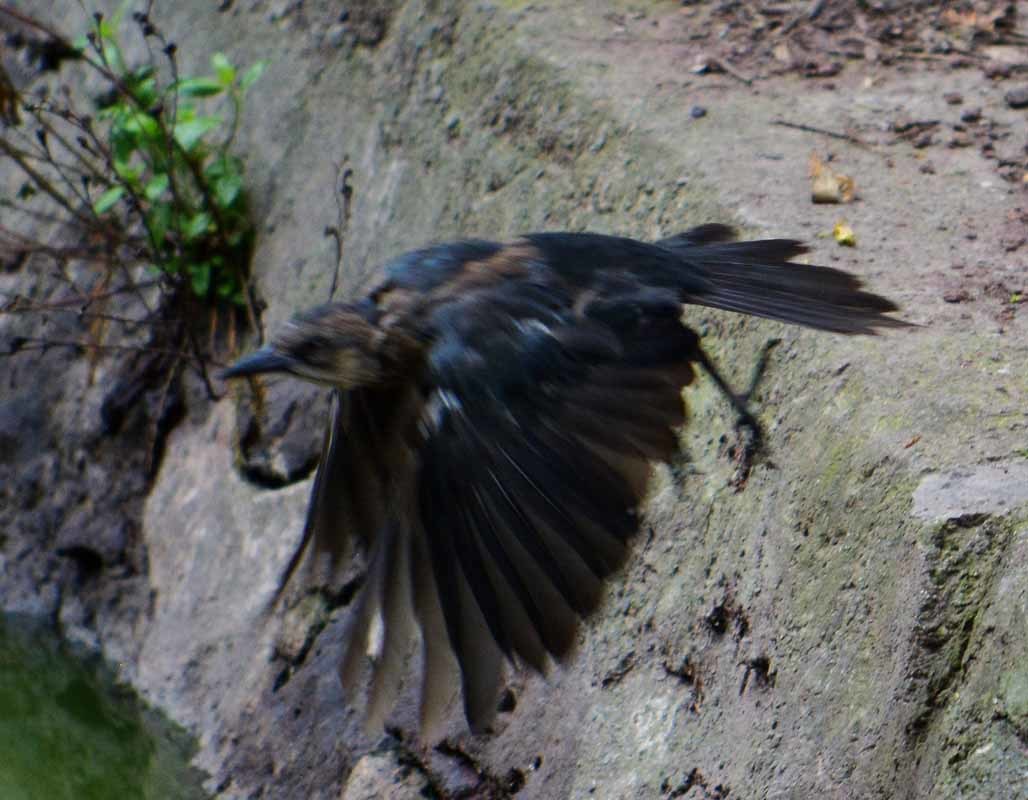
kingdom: Animalia
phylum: Chordata
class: Aves
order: Passeriformes
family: Icteridae
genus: Quiscalus
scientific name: Quiscalus mexicanus
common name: Great-tailed grackle
